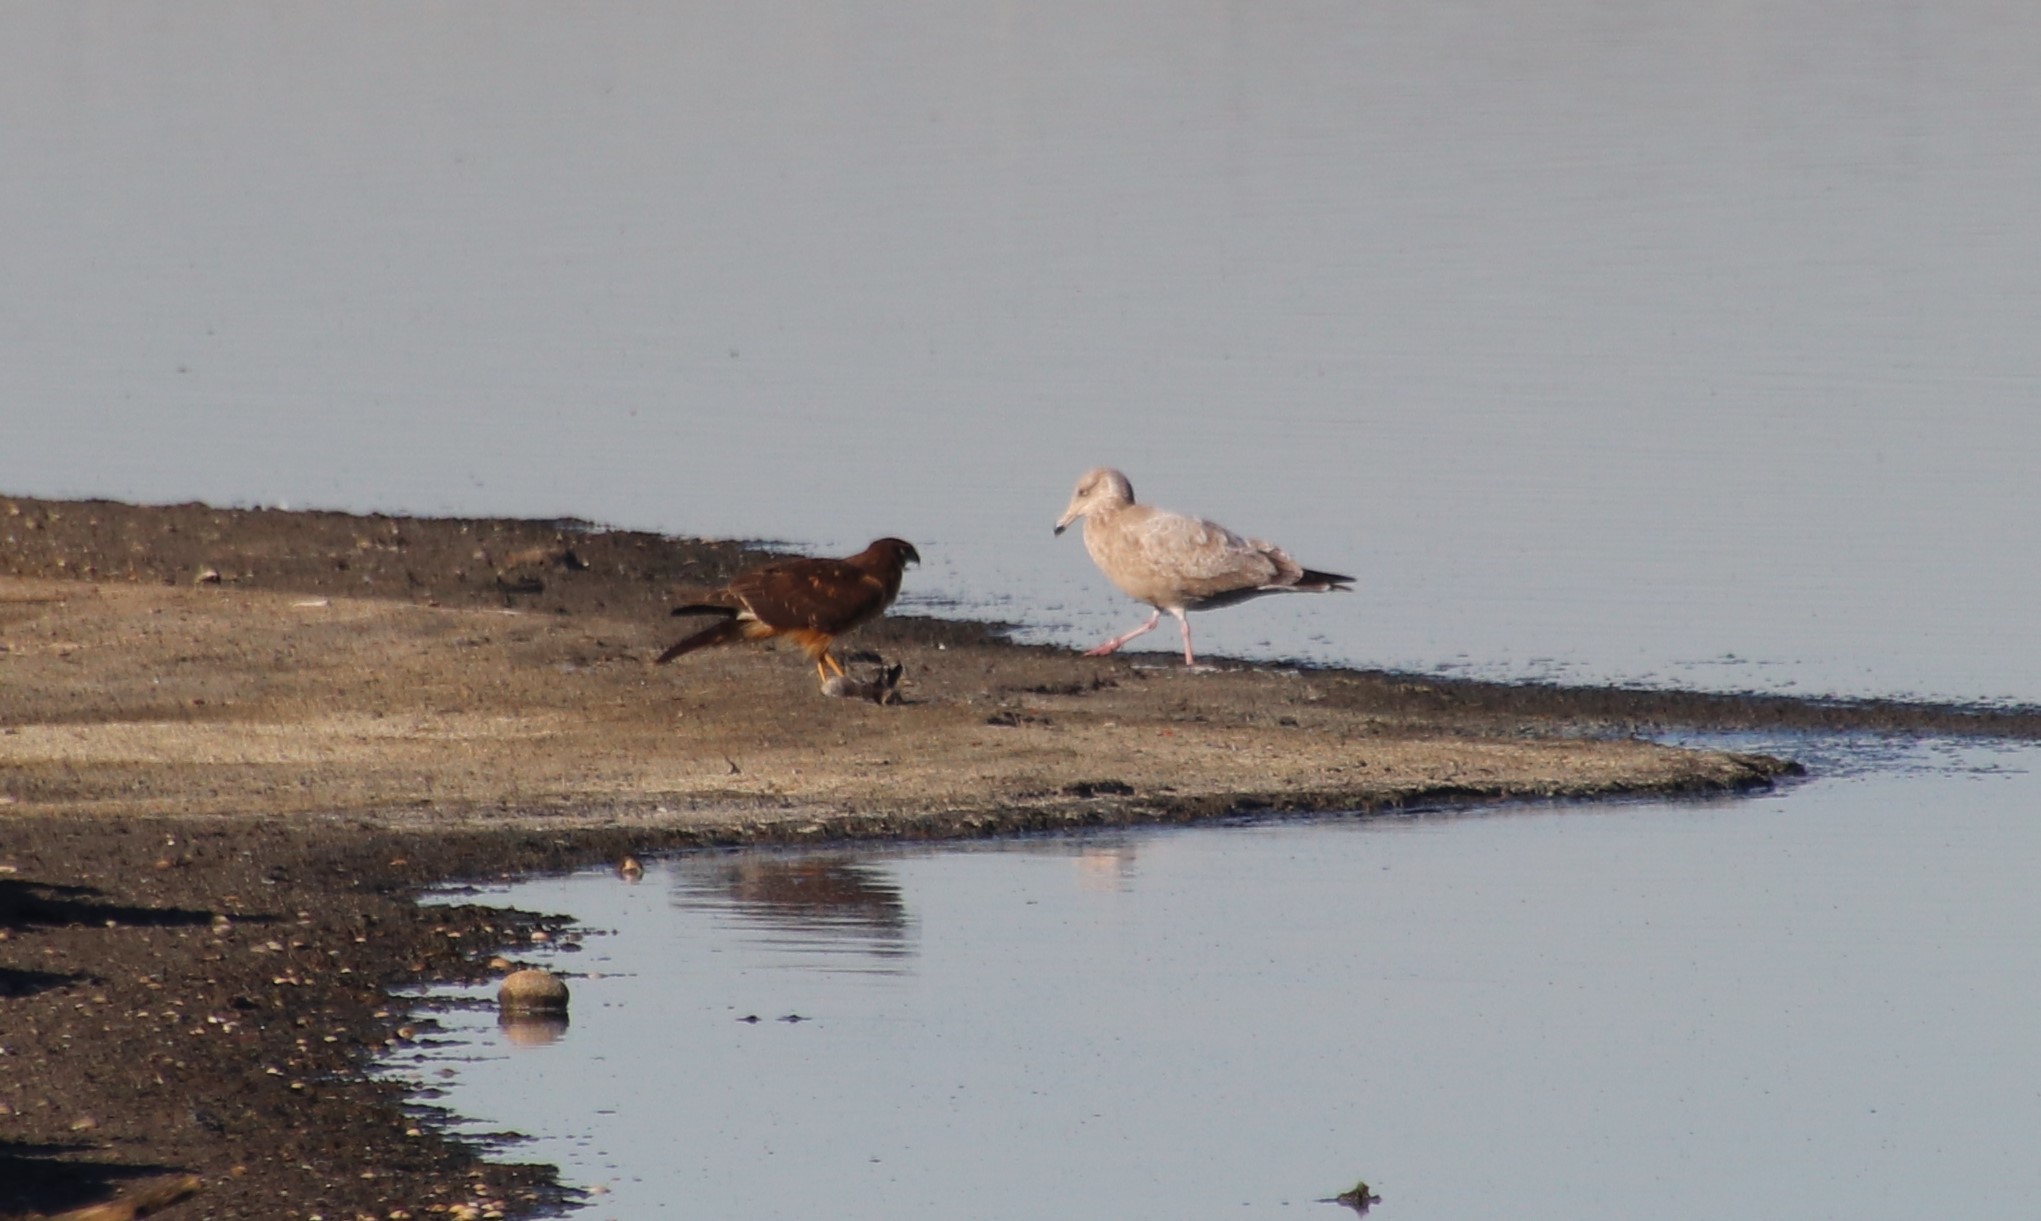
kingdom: Animalia
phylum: Chordata
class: Aves
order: Accipitriformes
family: Accipitridae
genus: Circus
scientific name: Circus cyaneus
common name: Hen harrier
